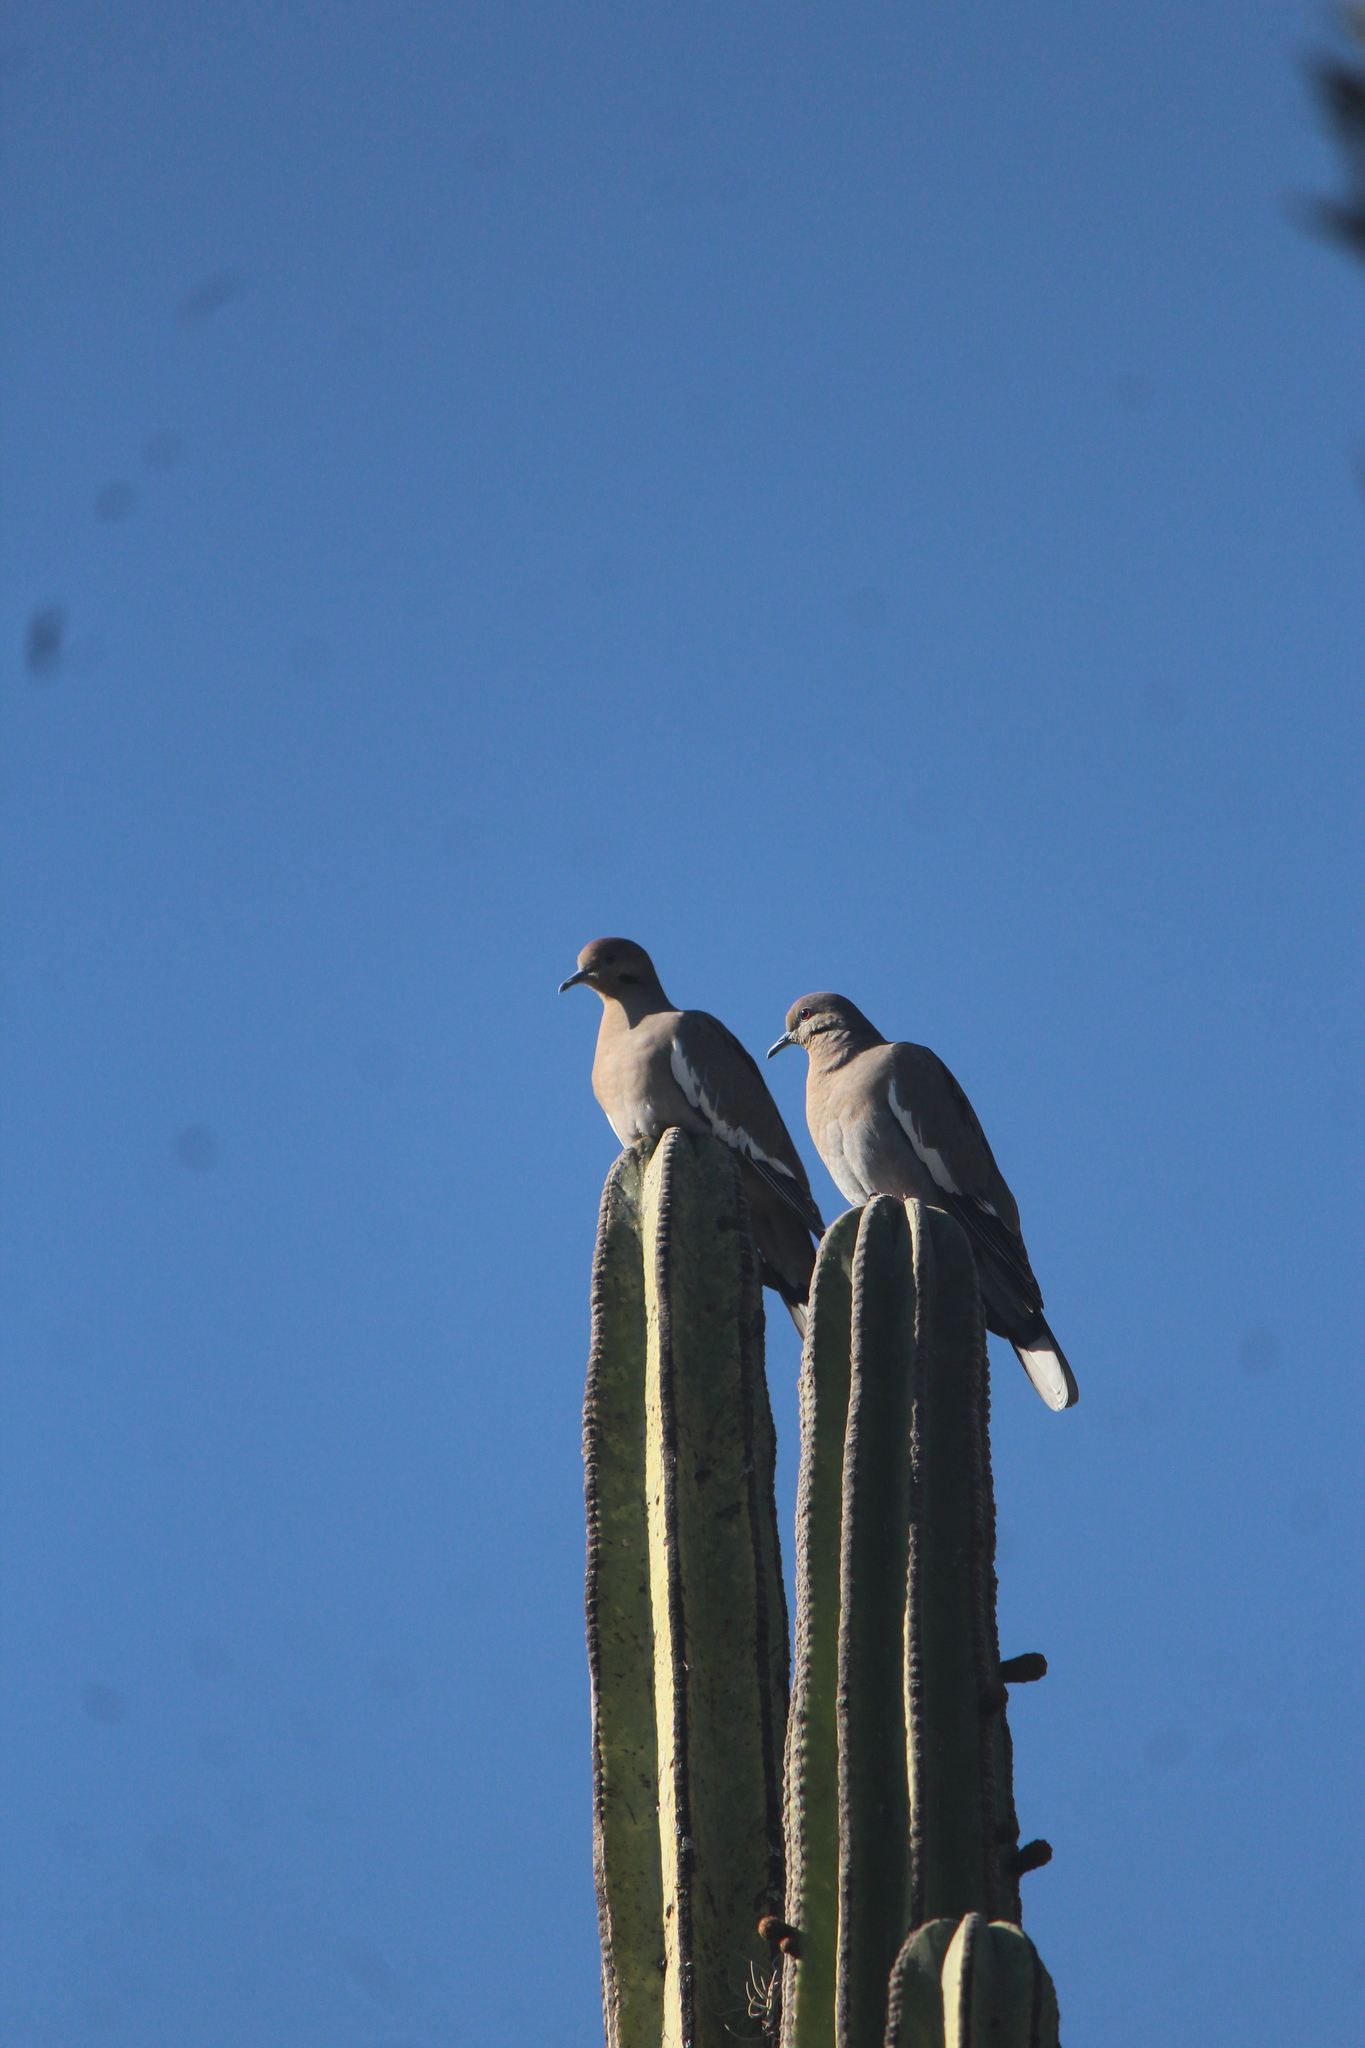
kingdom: Animalia
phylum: Chordata
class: Aves
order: Columbiformes
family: Columbidae
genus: Zenaida
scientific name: Zenaida asiatica
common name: White-winged dove
